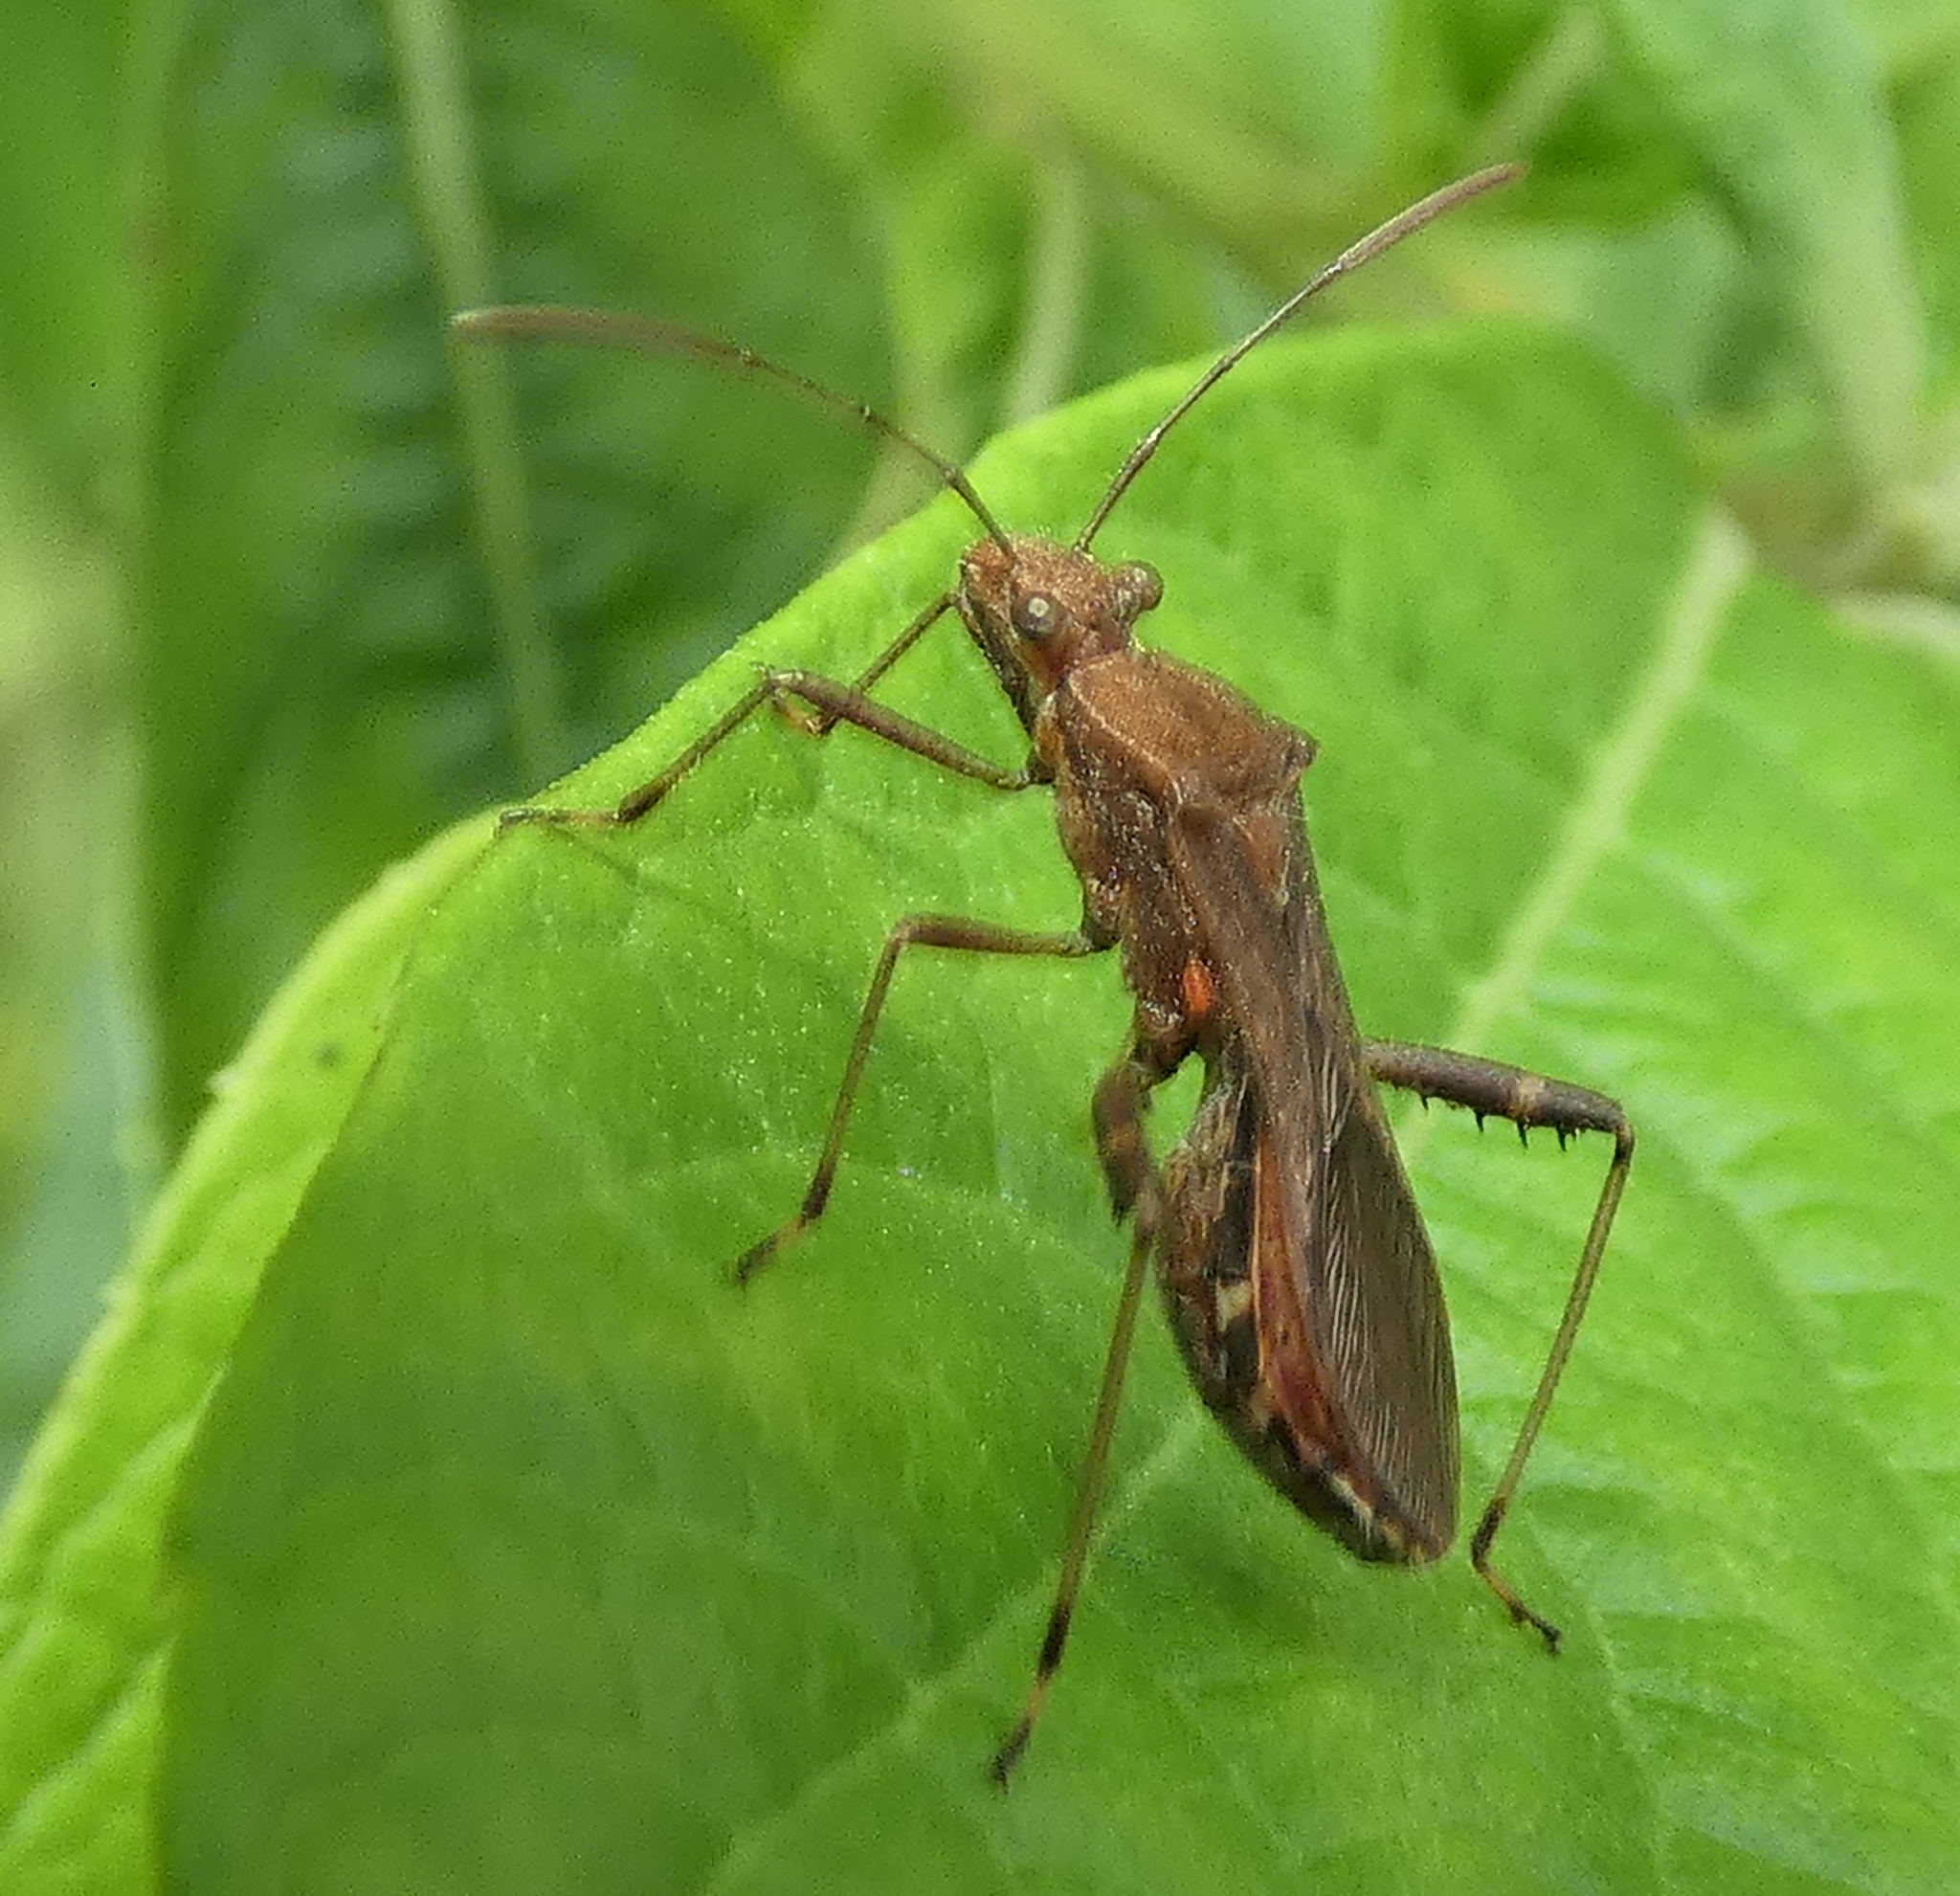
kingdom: Animalia
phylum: Arthropoda
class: Insecta
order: Hemiptera
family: Alydidae
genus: Neomegalotomus
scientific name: Neomegalotomus parvus
